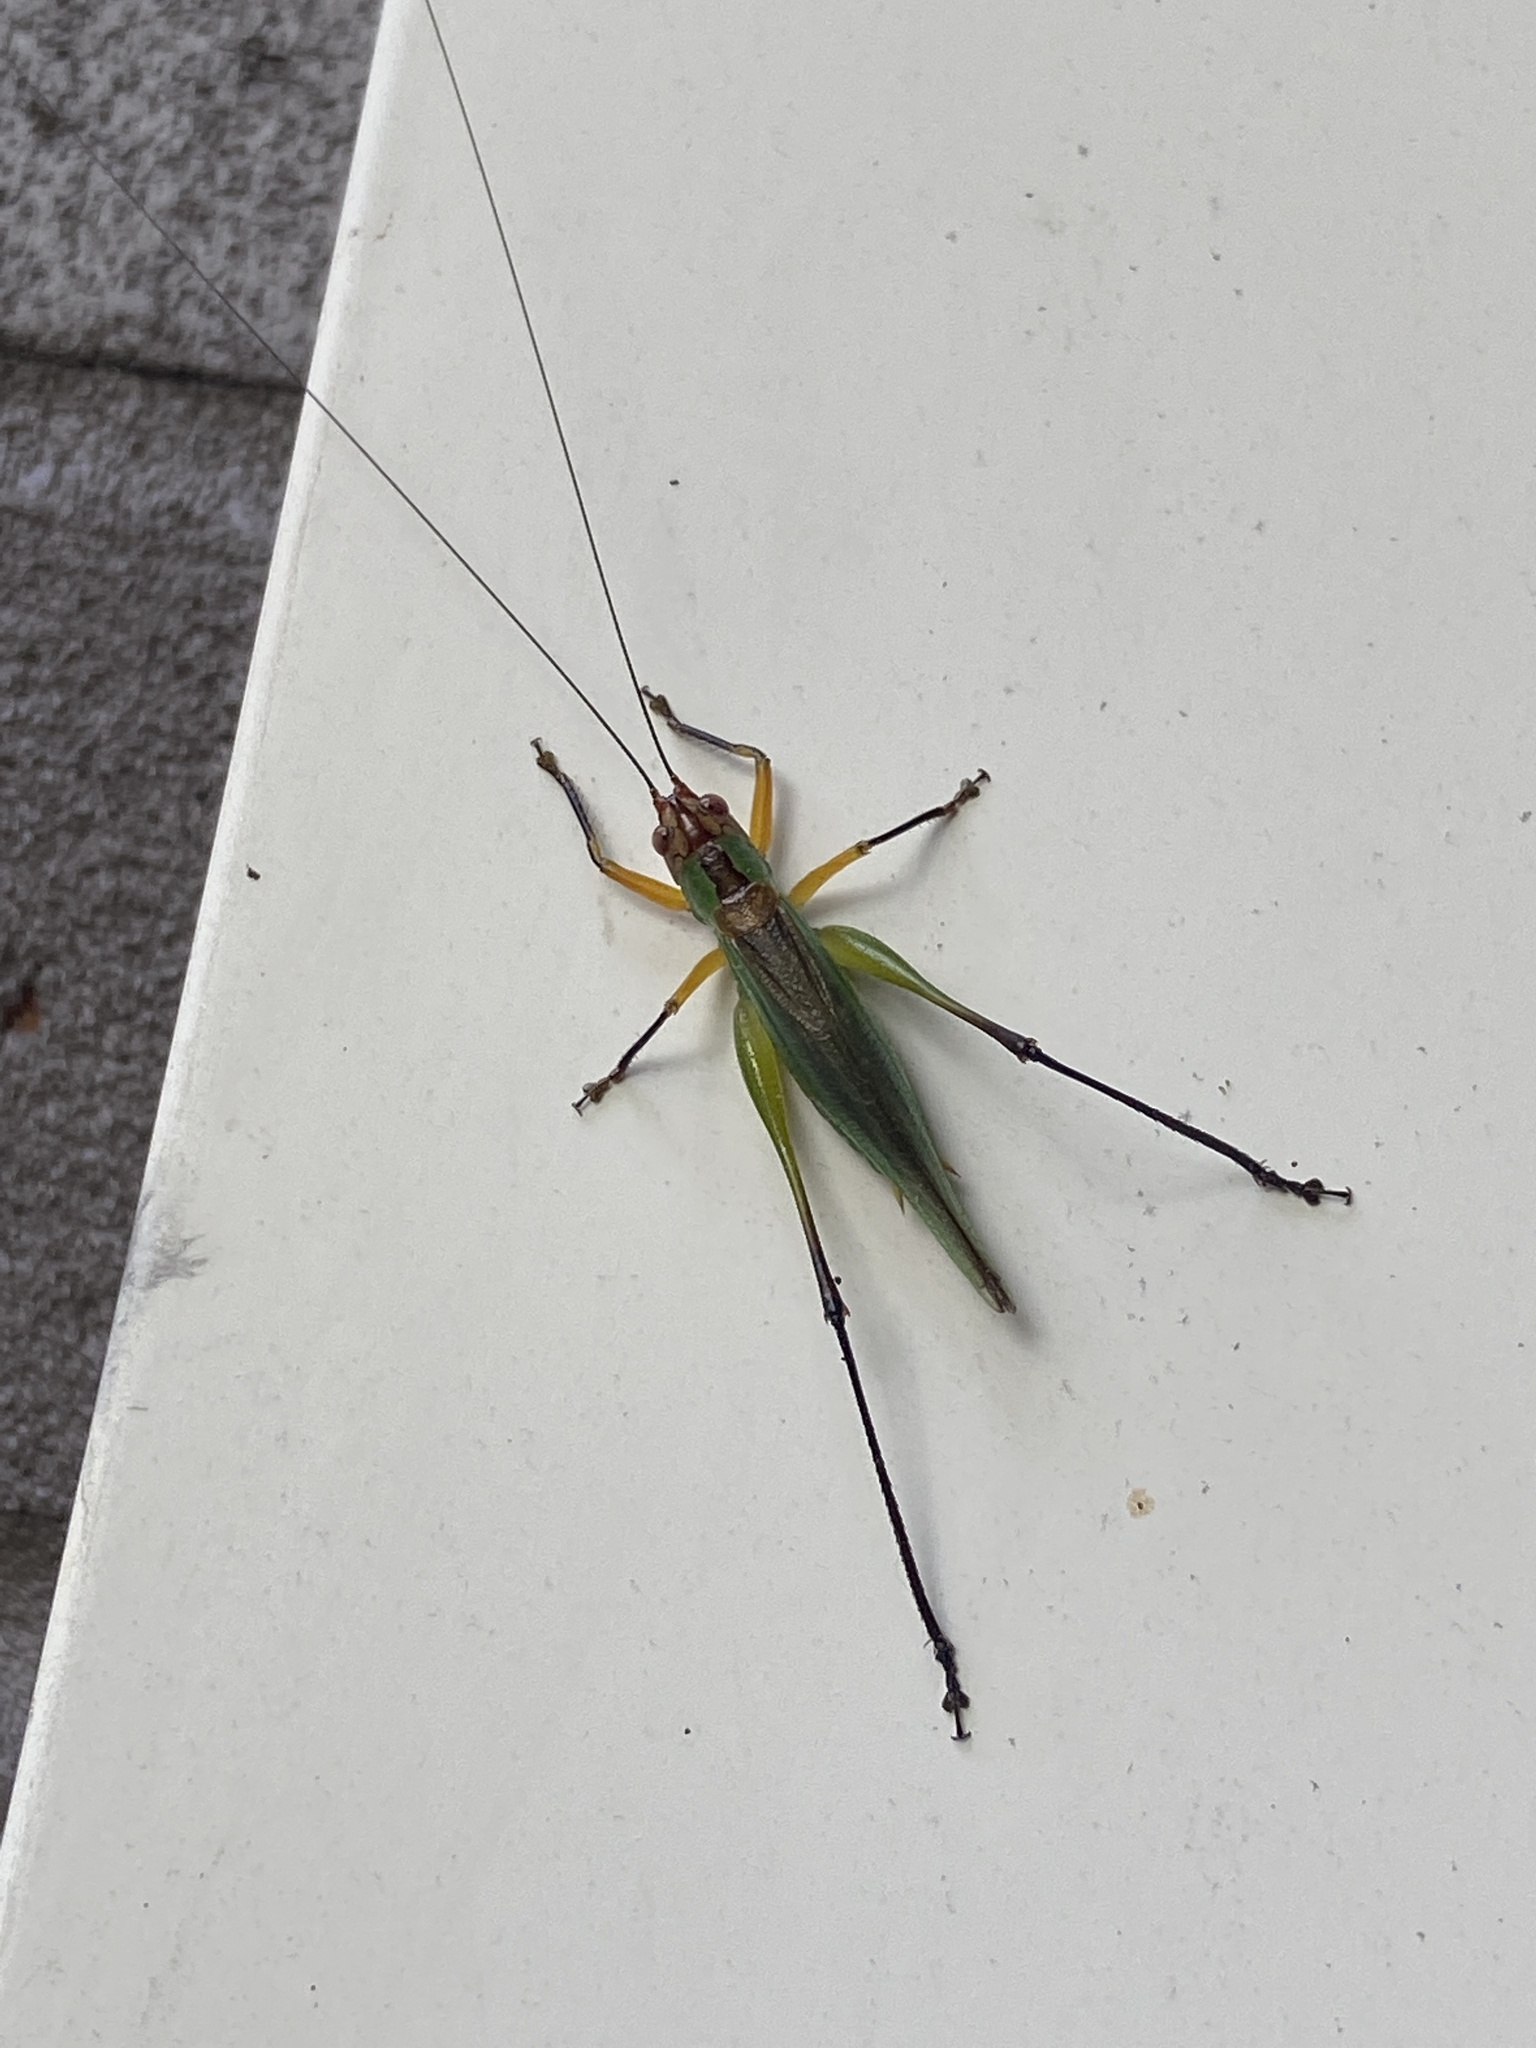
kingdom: Animalia
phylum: Arthropoda
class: Insecta
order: Orthoptera
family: Tettigoniidae
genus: Orchelimum
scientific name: Orchelimum nigripes
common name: Black-legged meadow katydid
